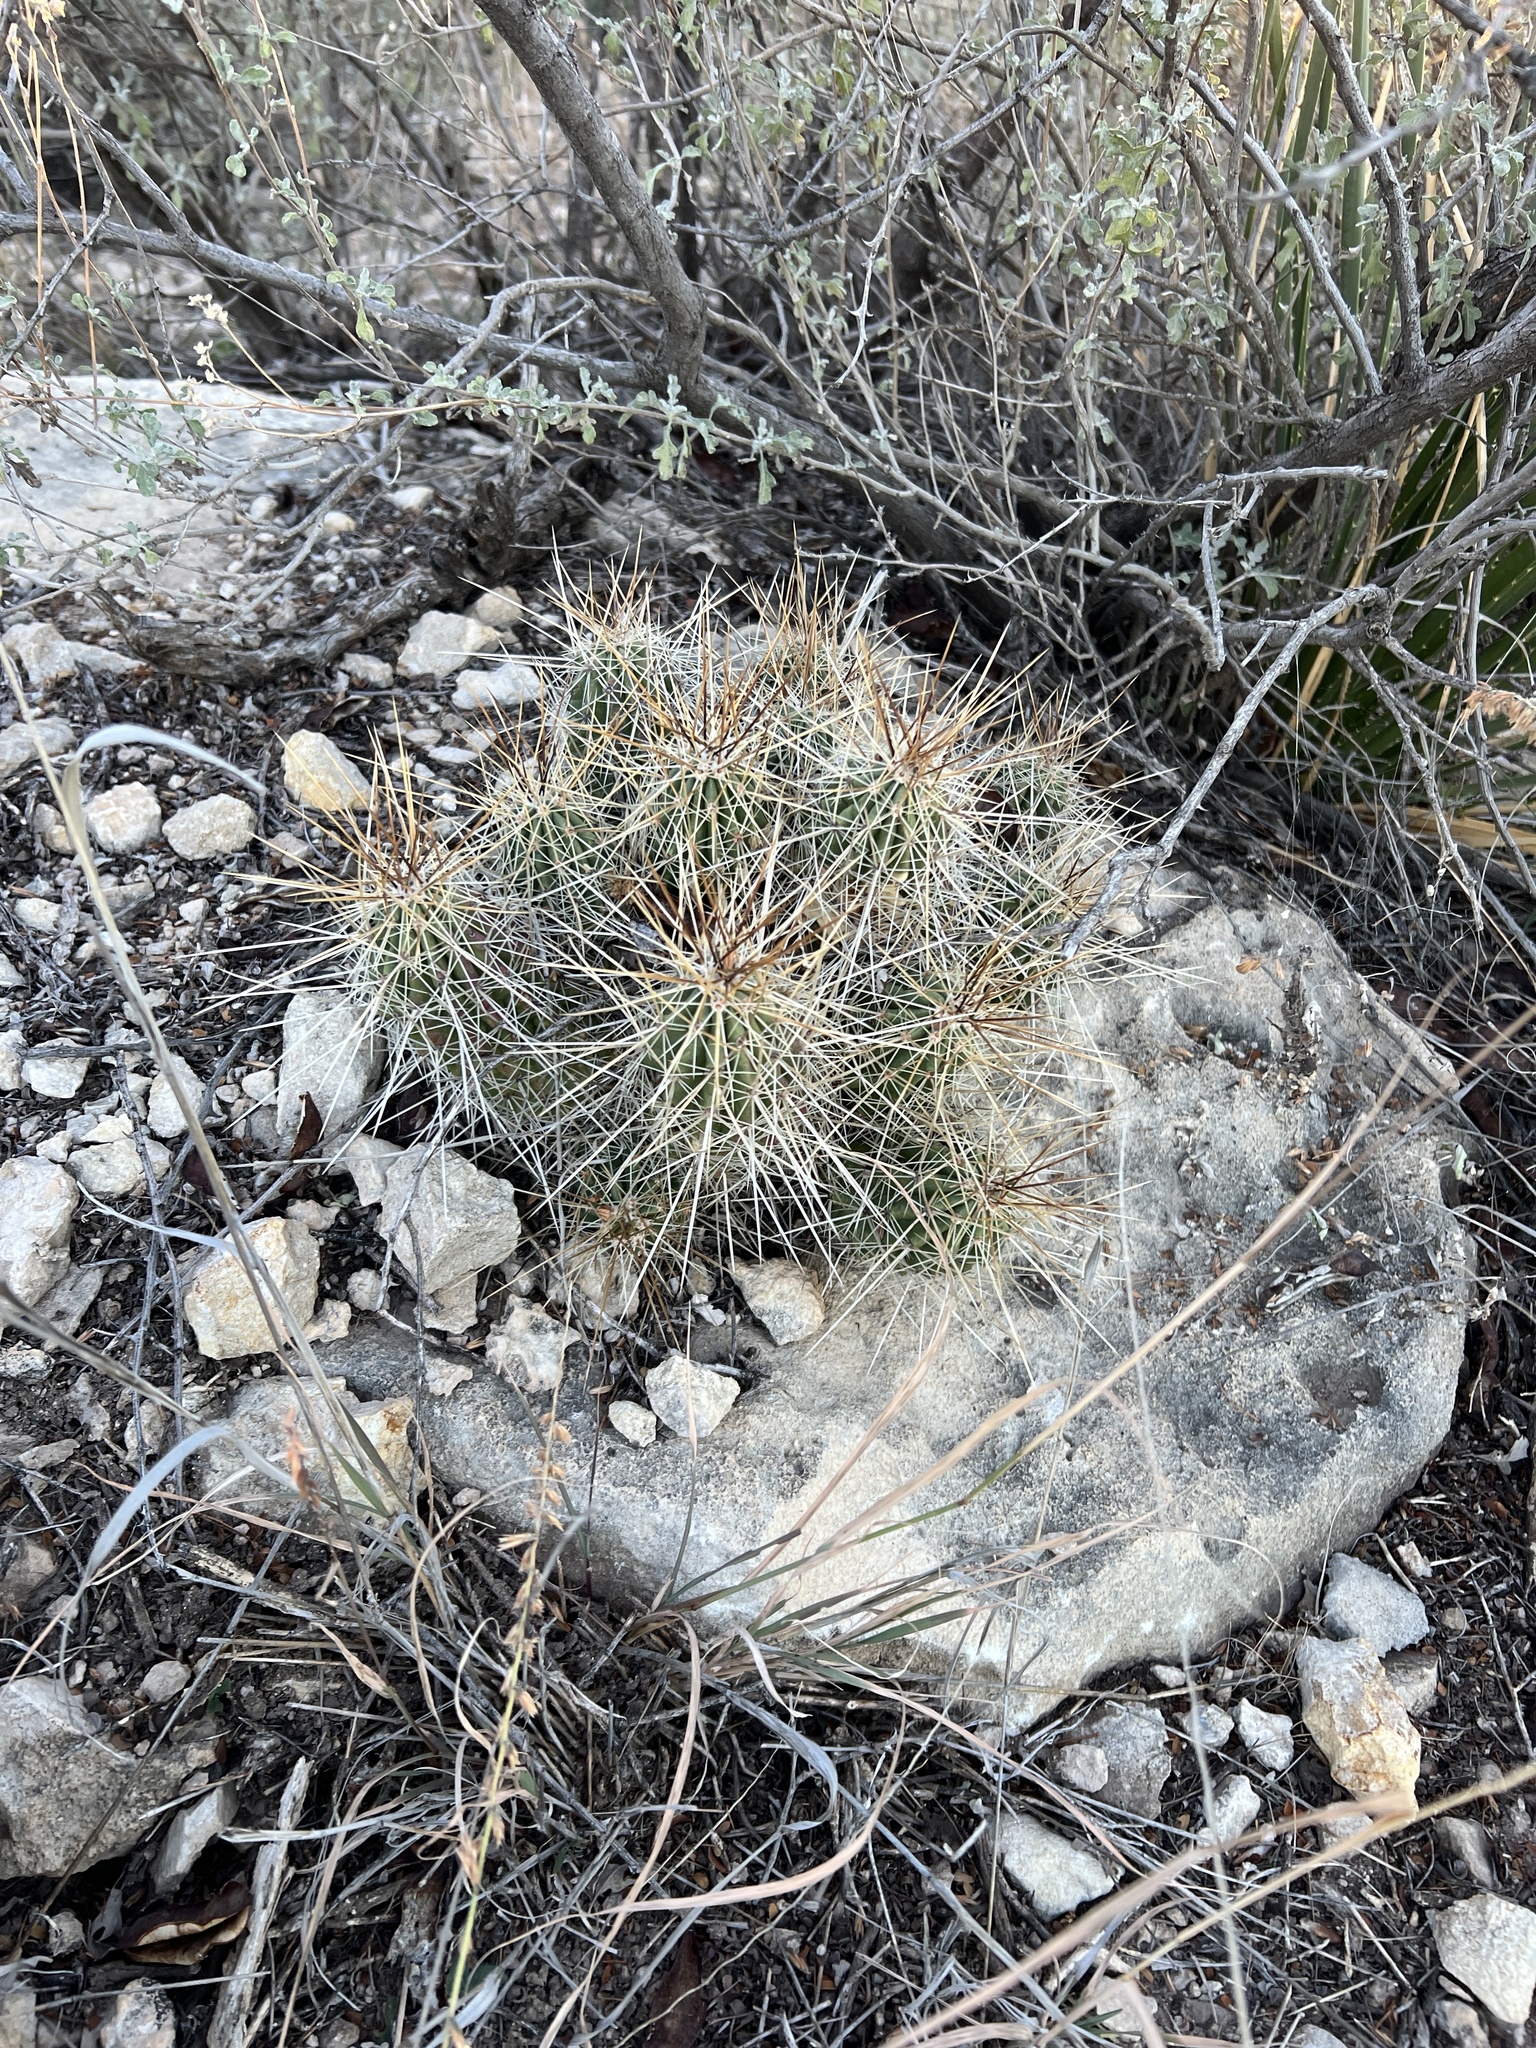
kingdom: Plantae
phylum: Tracheophyta
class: Magnoliopsida
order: Caryophyllales
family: Cactaceae
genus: Echinocereus
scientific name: Echinocereus stramineus
